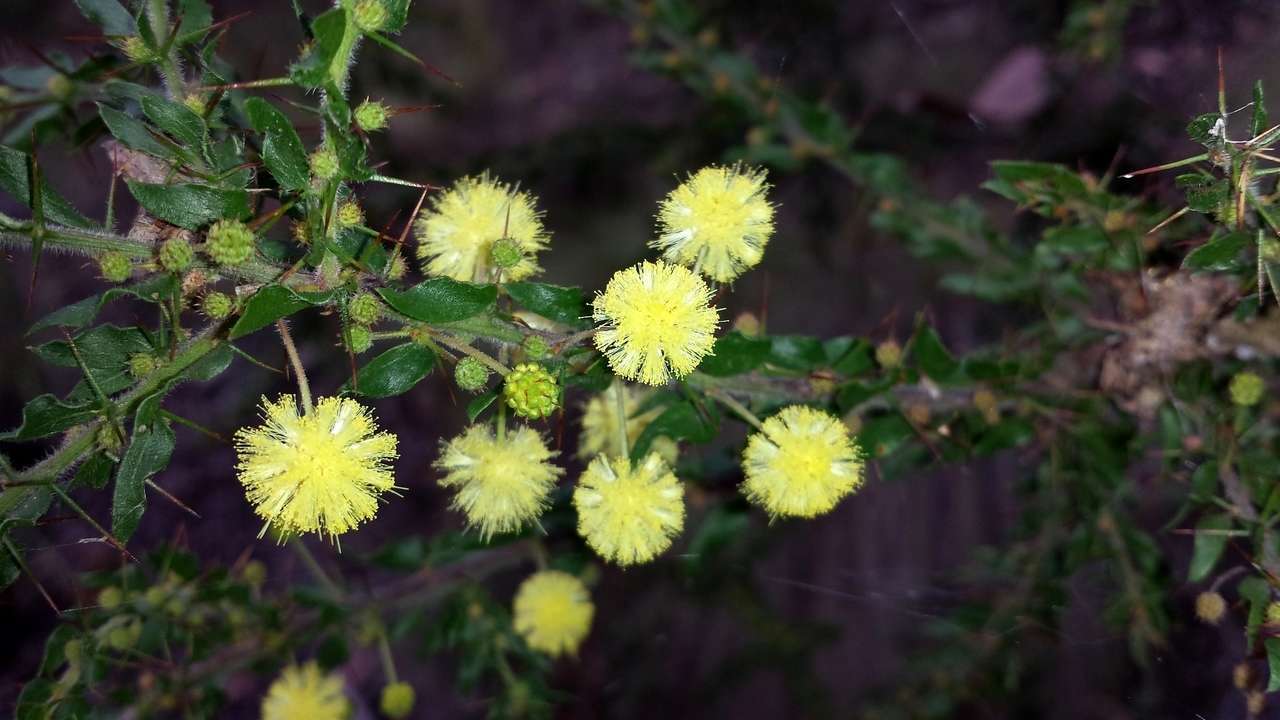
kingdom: Plantae
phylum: Tracheophyta
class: Magnoliopsida
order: Fabales
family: Fabaceae
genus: Acacia
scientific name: Acacia paradoxa
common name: Paradox acacia
